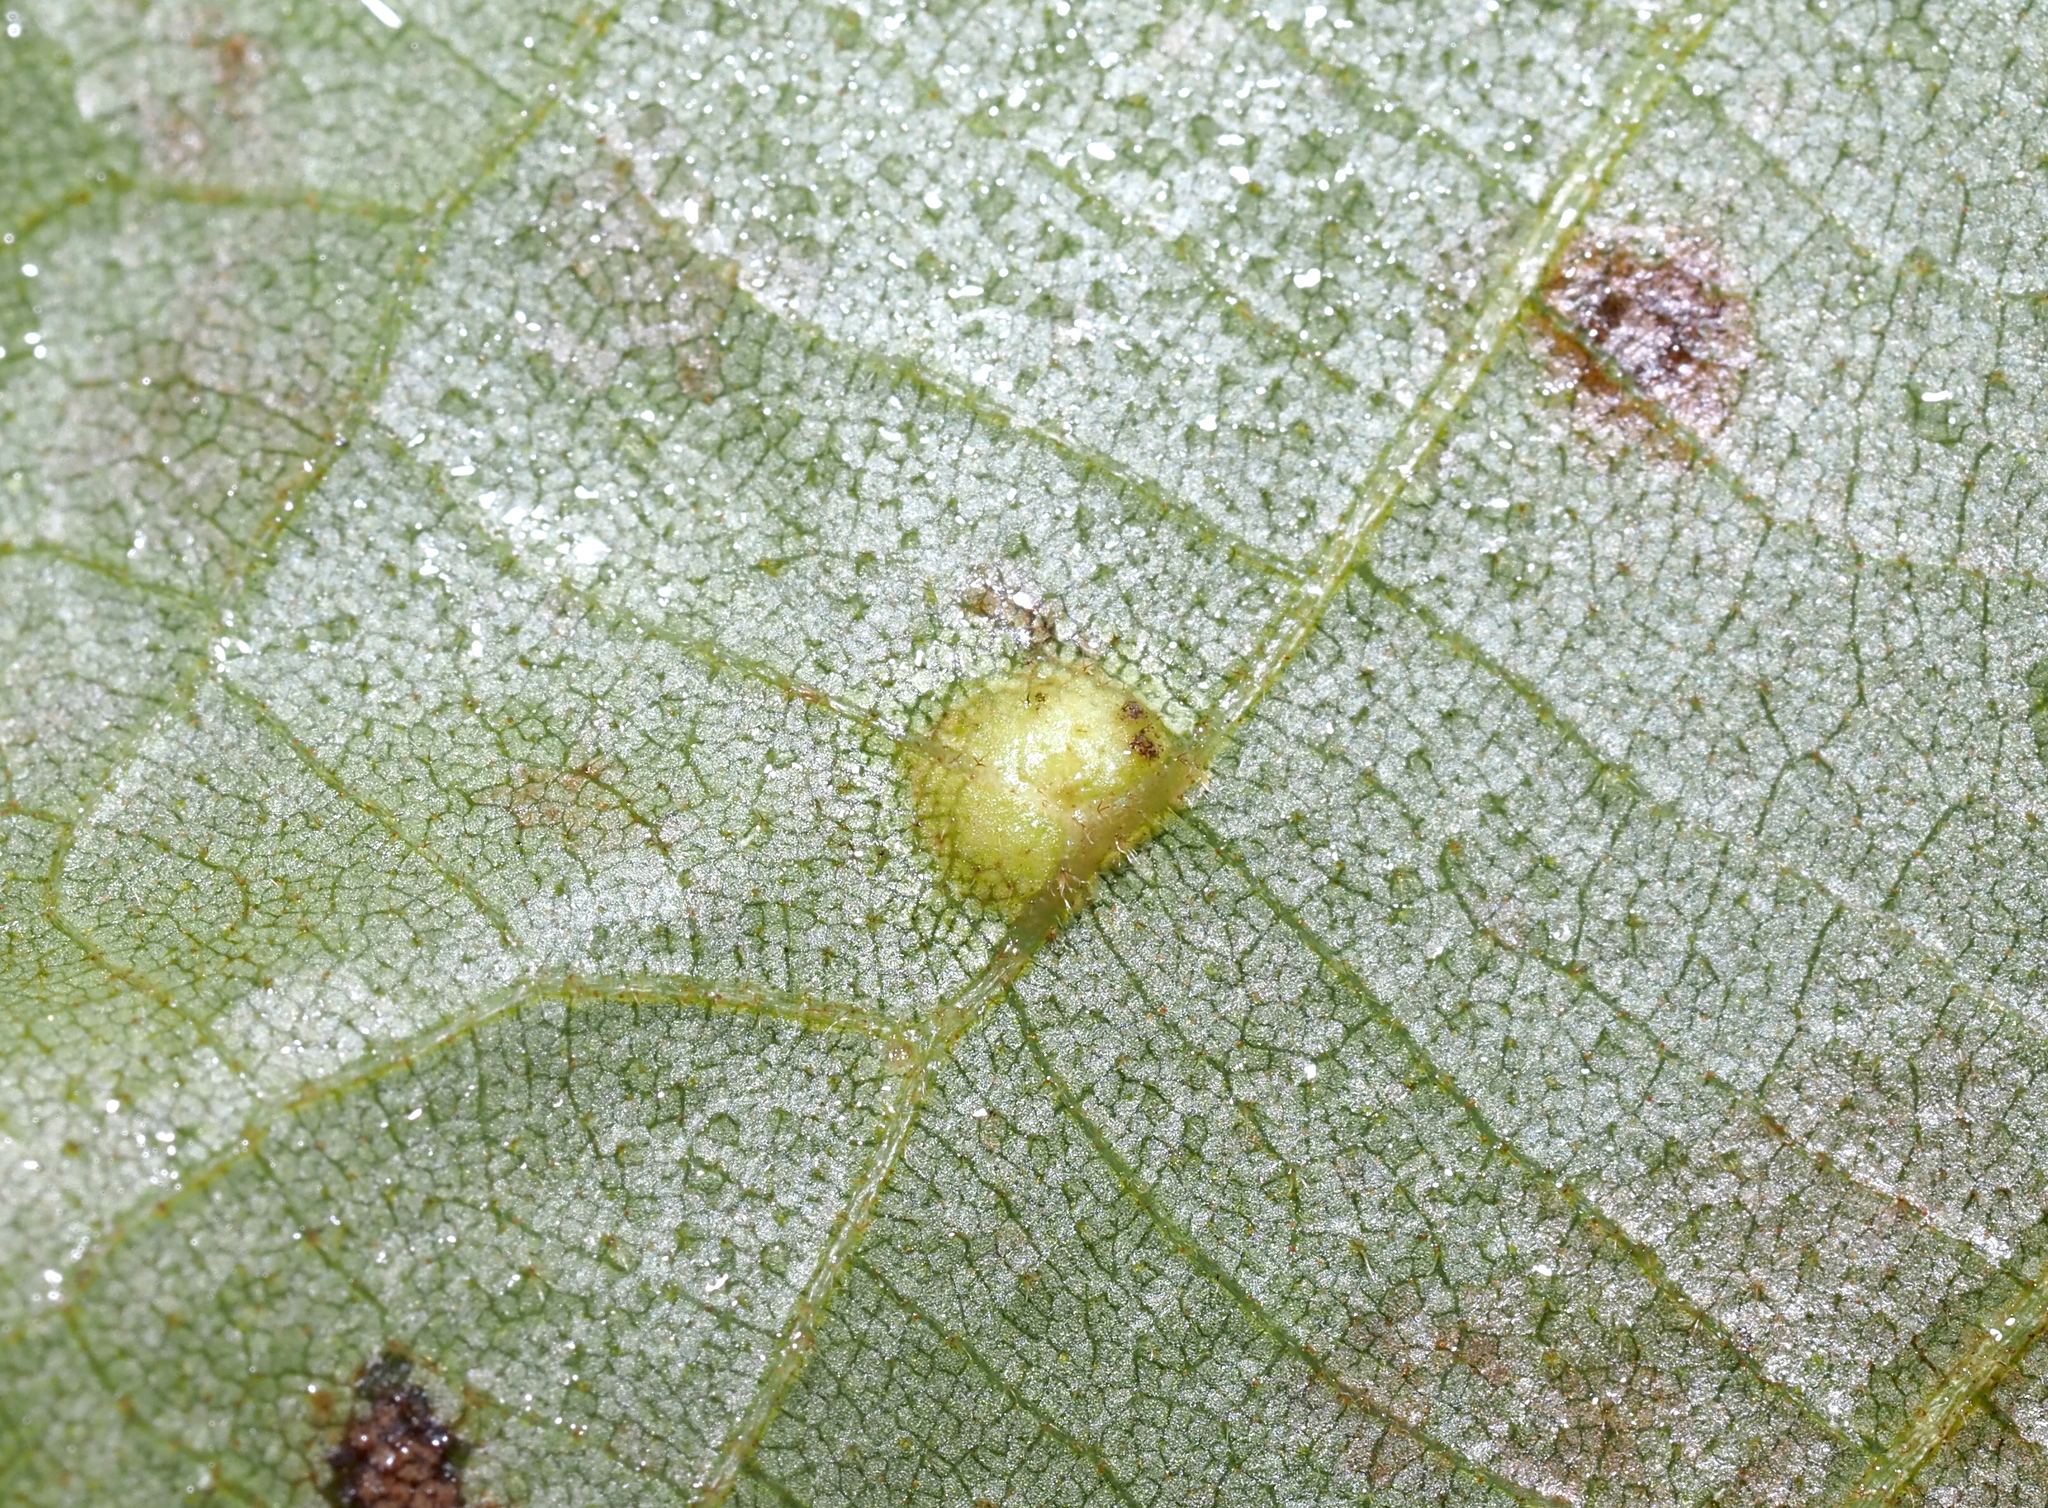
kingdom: Animalia
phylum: Arthropoda
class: Insecta
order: Diptera
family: Cecidomyiidae
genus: Caryadiplosis
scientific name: Caryadiplosis biconvexa
